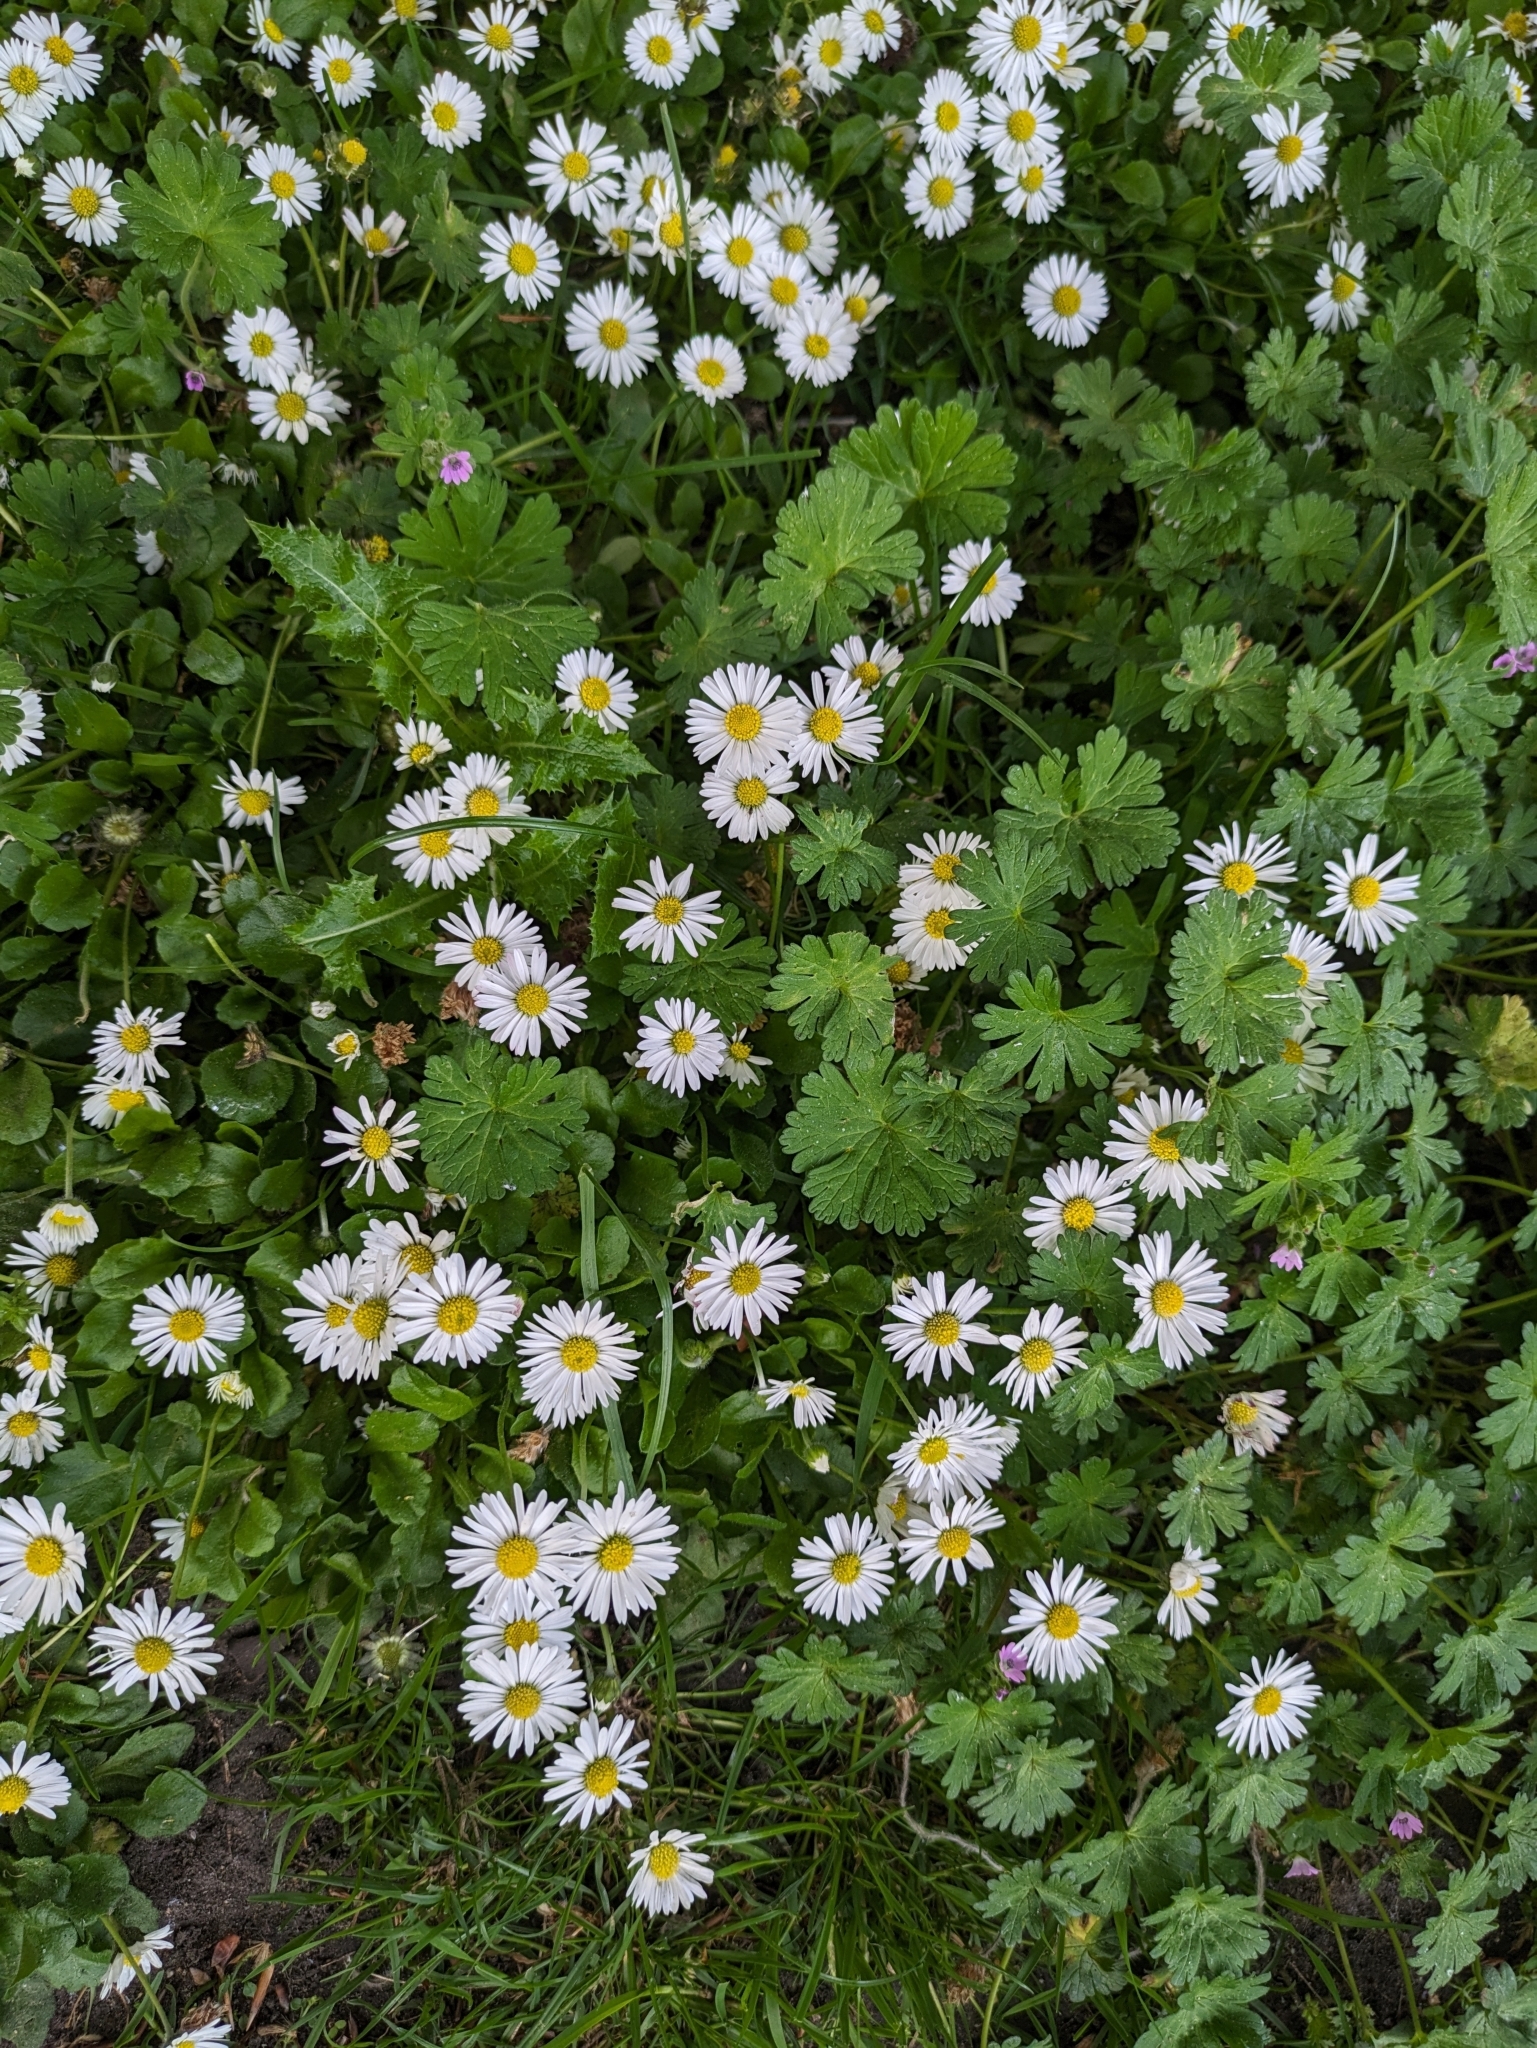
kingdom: Plantae
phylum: Tracheophyta
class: Magnoliopsida
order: Asterales
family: Asteraceae
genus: Bellis
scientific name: Bellis perennis
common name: Lawndaisy
